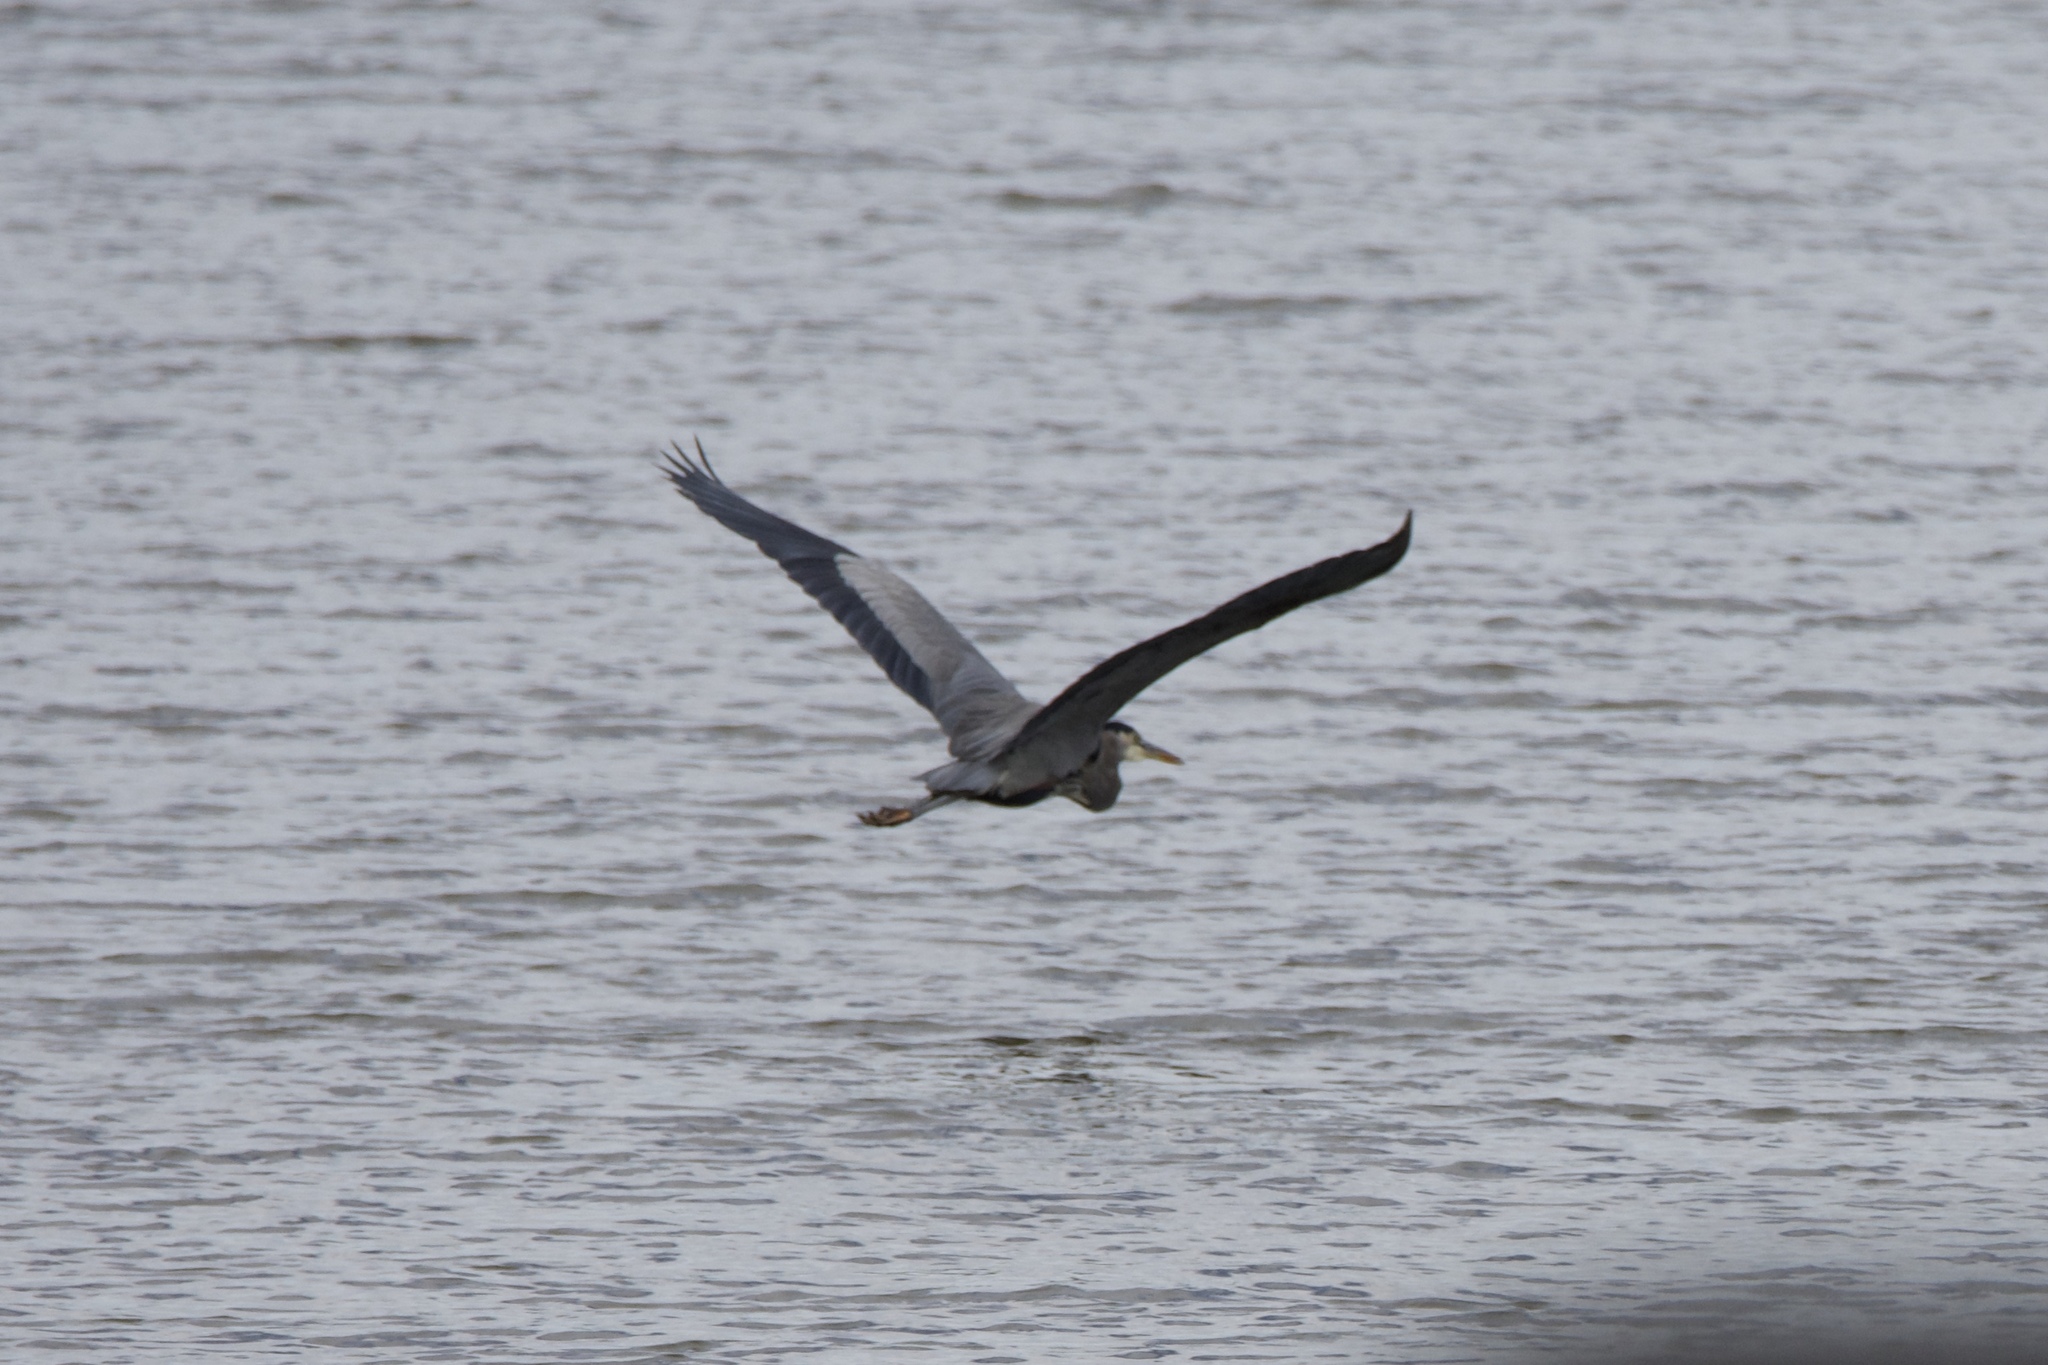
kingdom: Animalia
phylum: Chordata
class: Aves
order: Pelecaniformes
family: Ardeidae
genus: Ardea
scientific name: Ardea herodias
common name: Great blue heron
